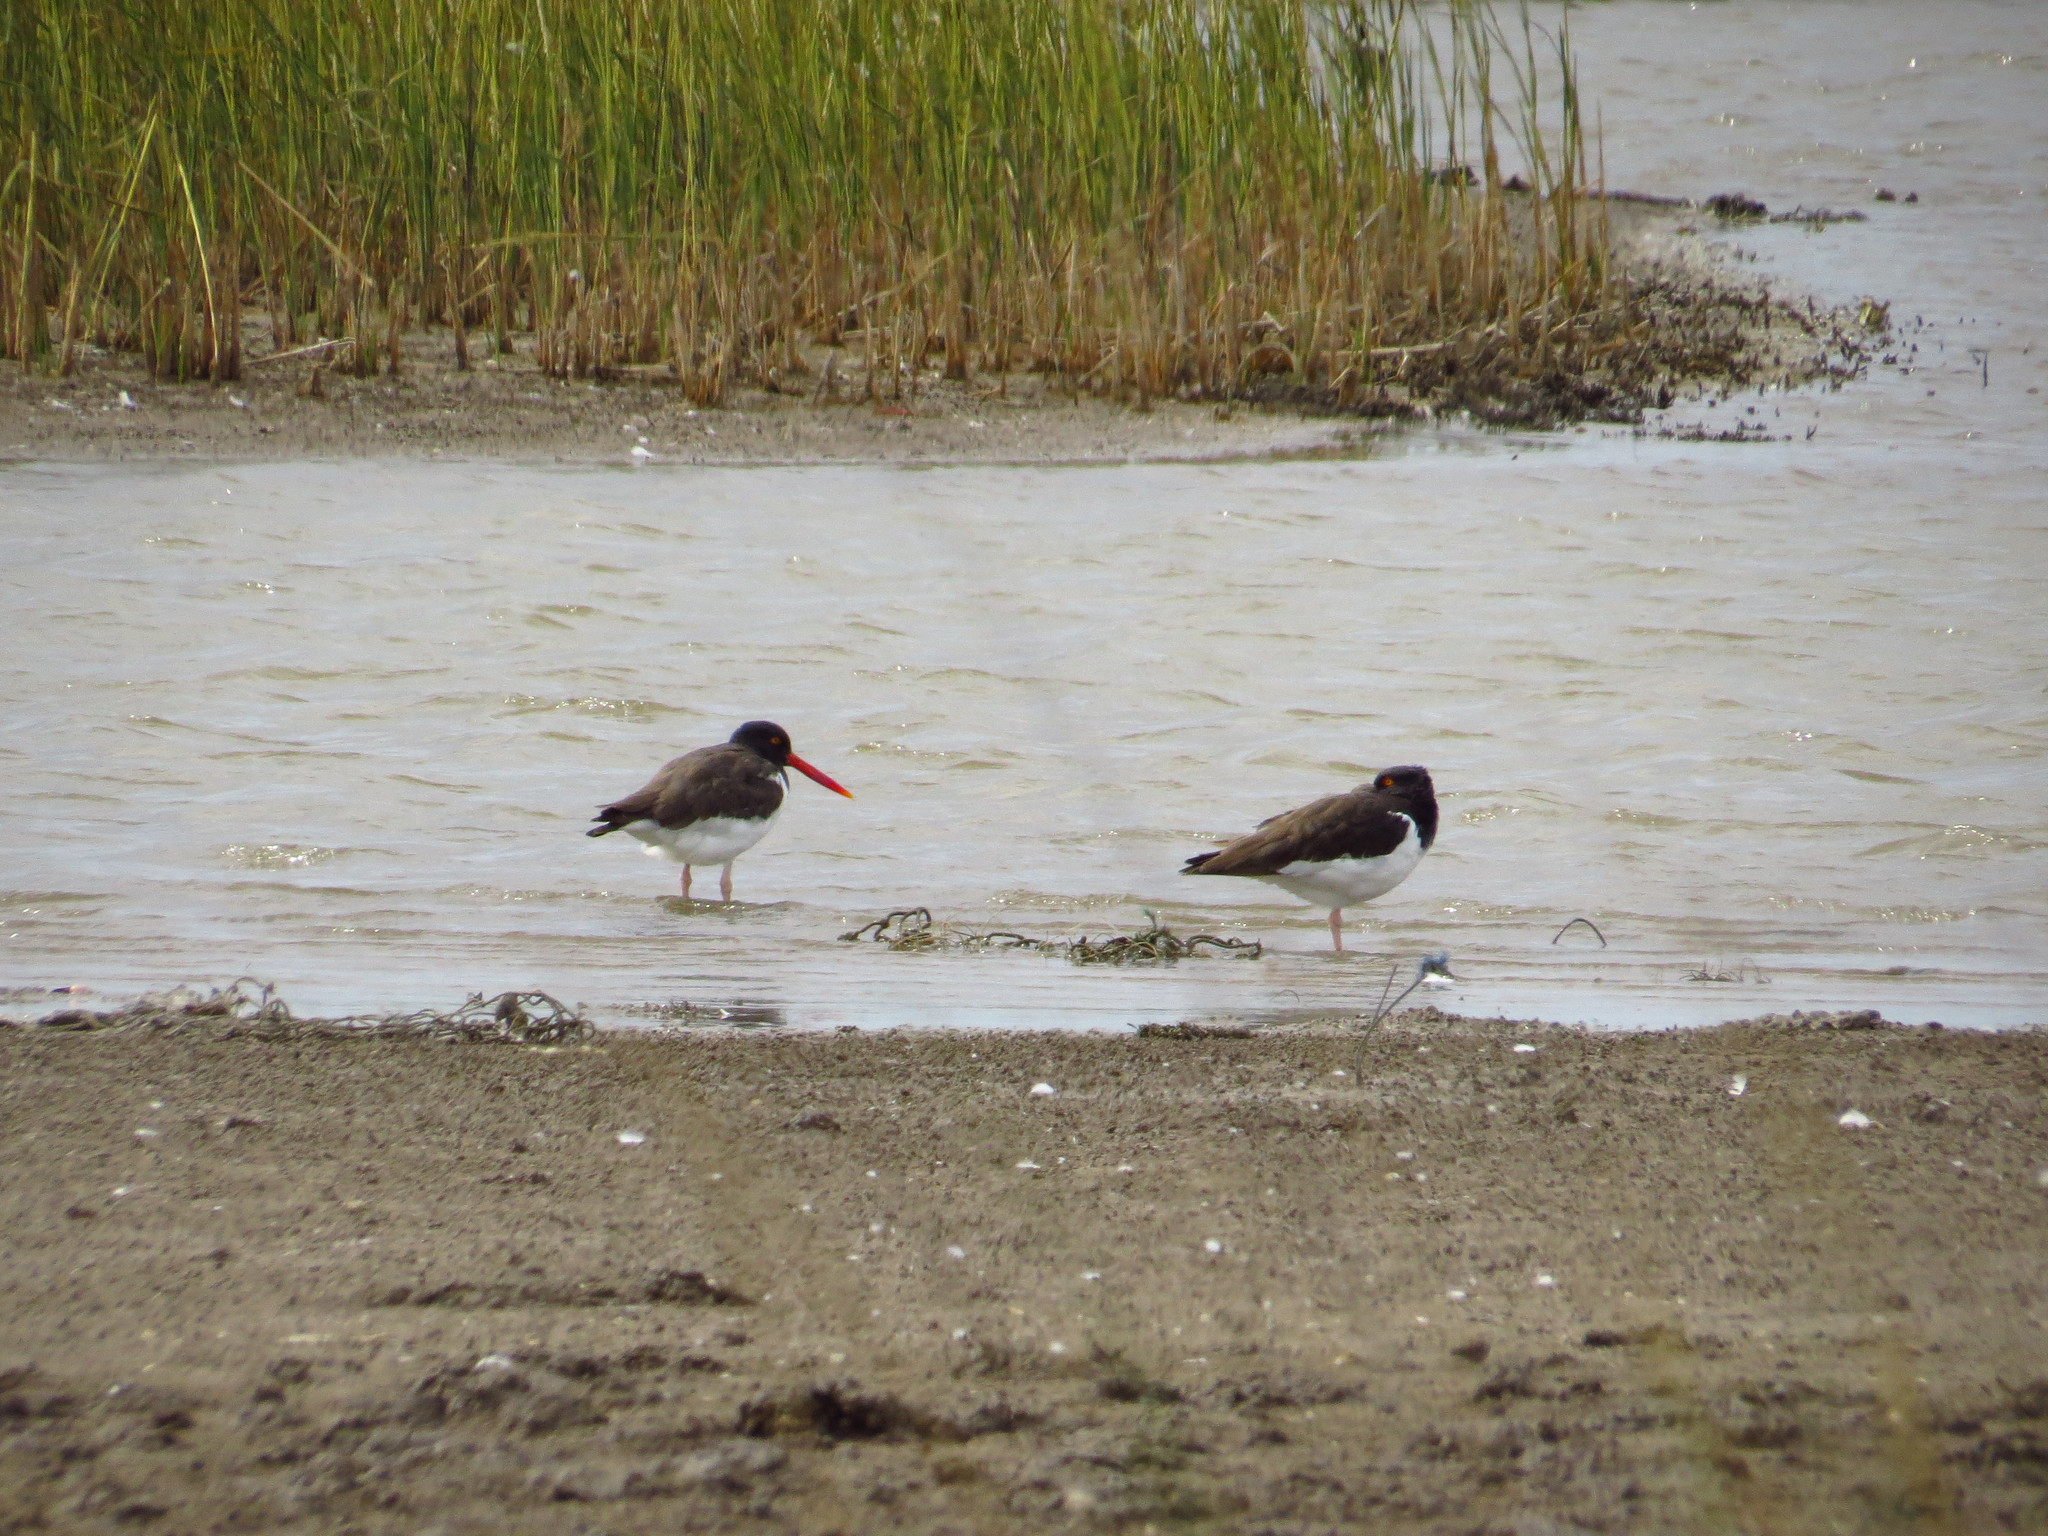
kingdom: Animalia
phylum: Chordata
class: Aves
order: Charadriiformes
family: Haematopodidae
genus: Haematopus
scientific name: Haematopus palliatus
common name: American oystercatcher
